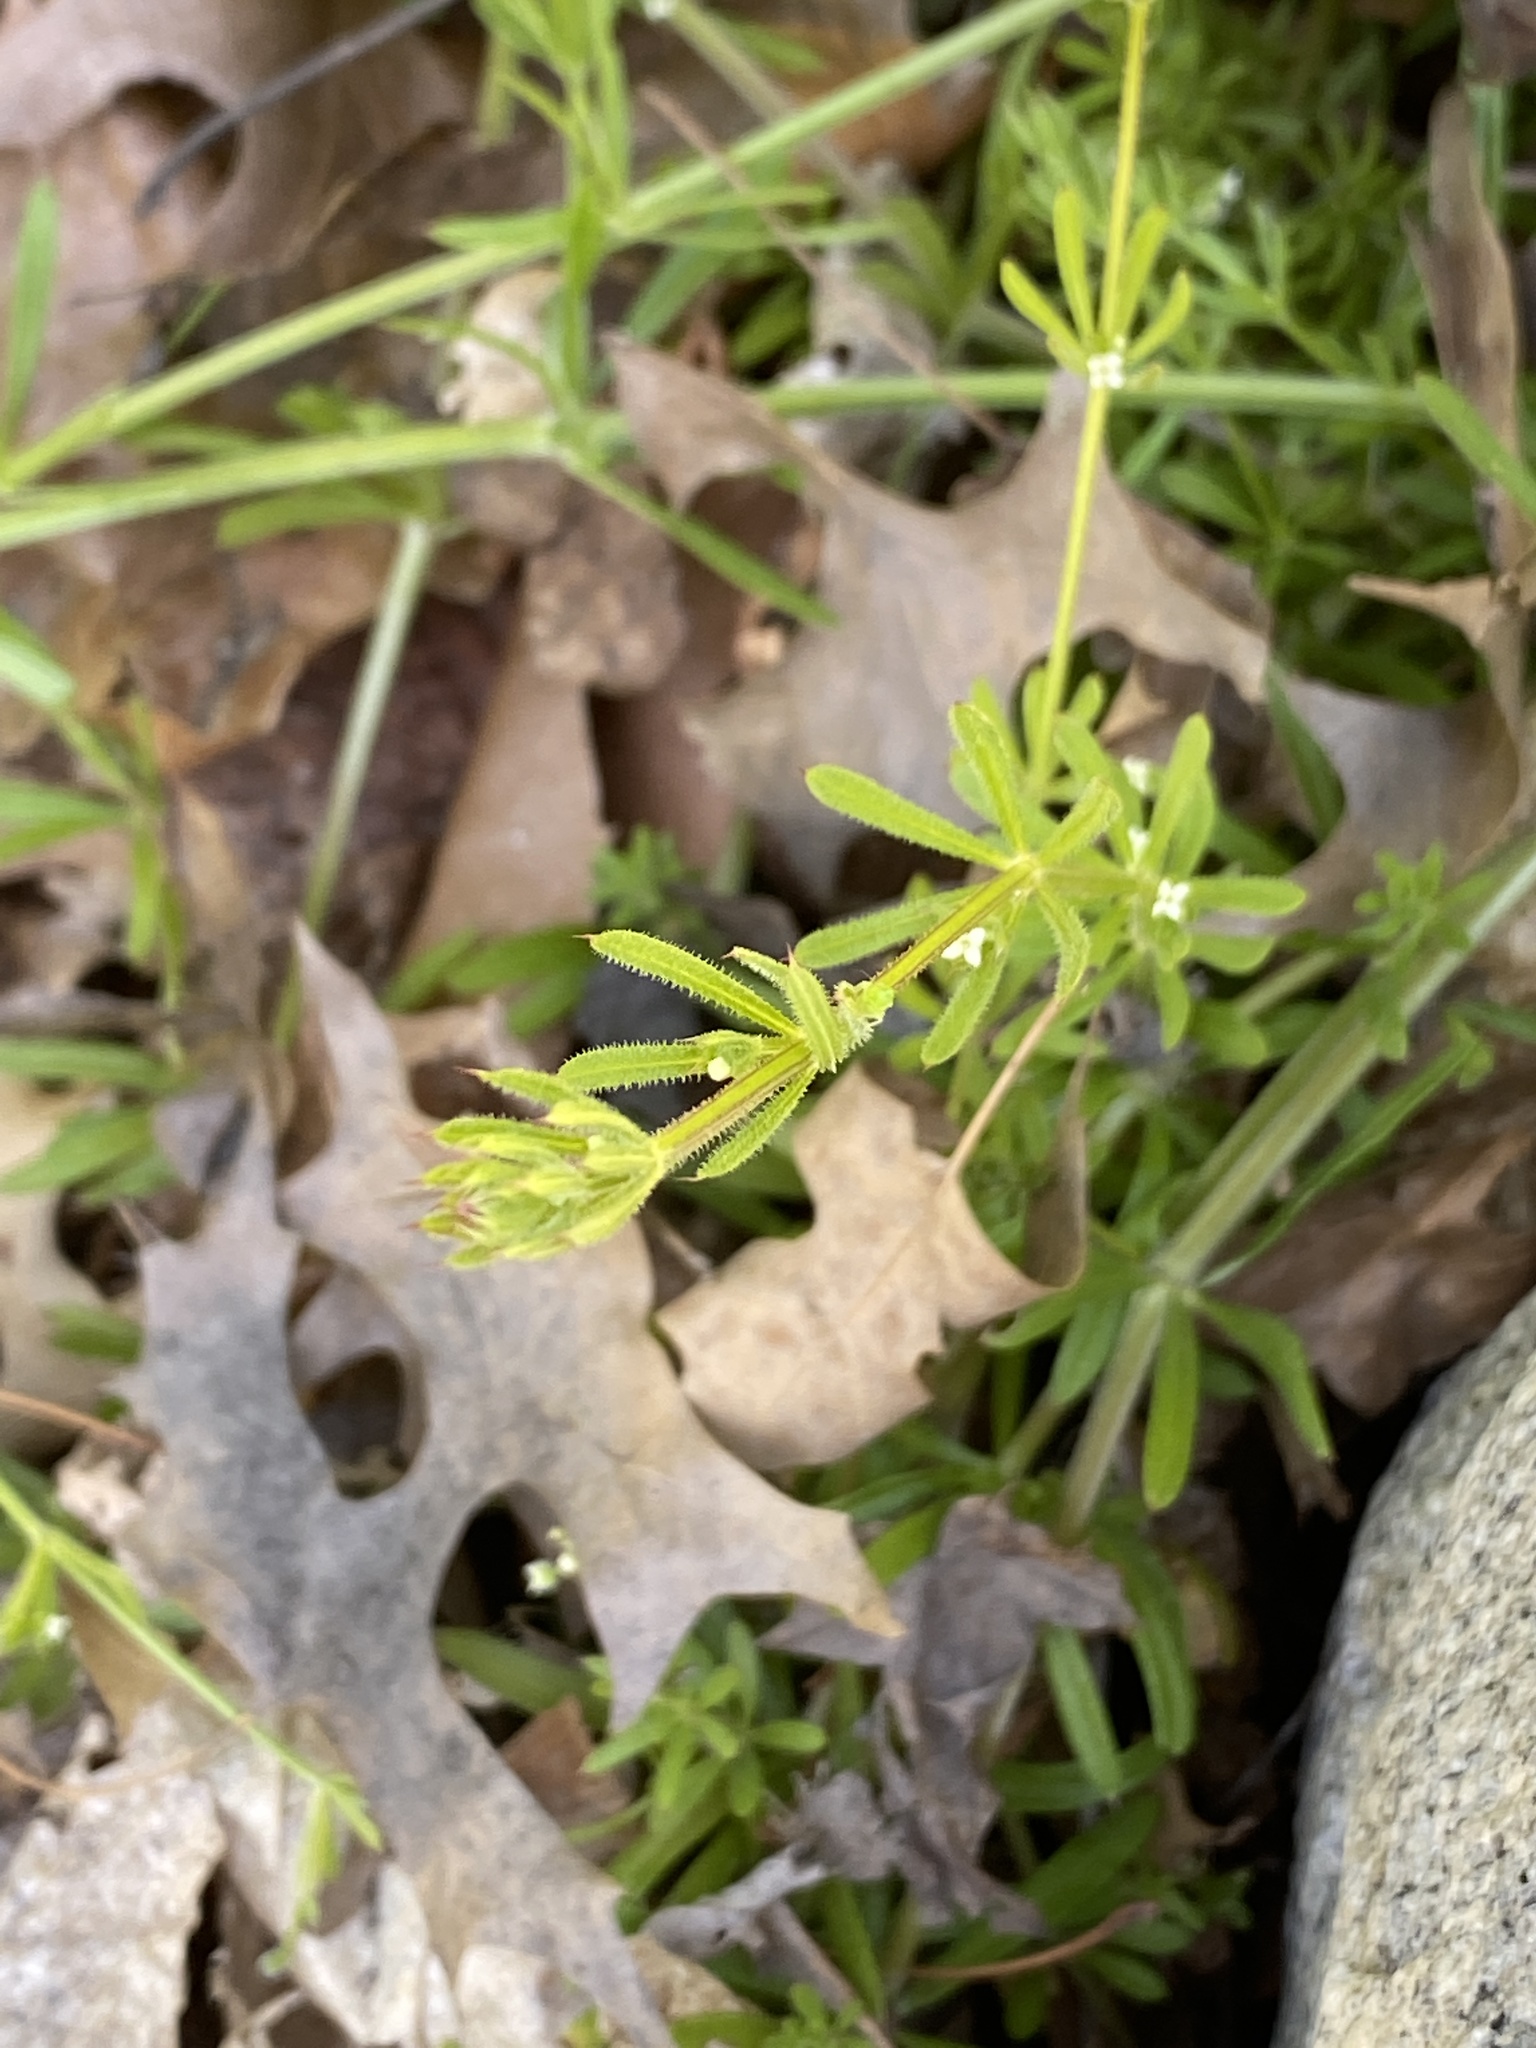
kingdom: Plantae
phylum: Tracheophyta
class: Magnoliopsida
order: Gentianales
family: Rubiaceae
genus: Galium
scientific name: Galium aparine
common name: Cleavers
